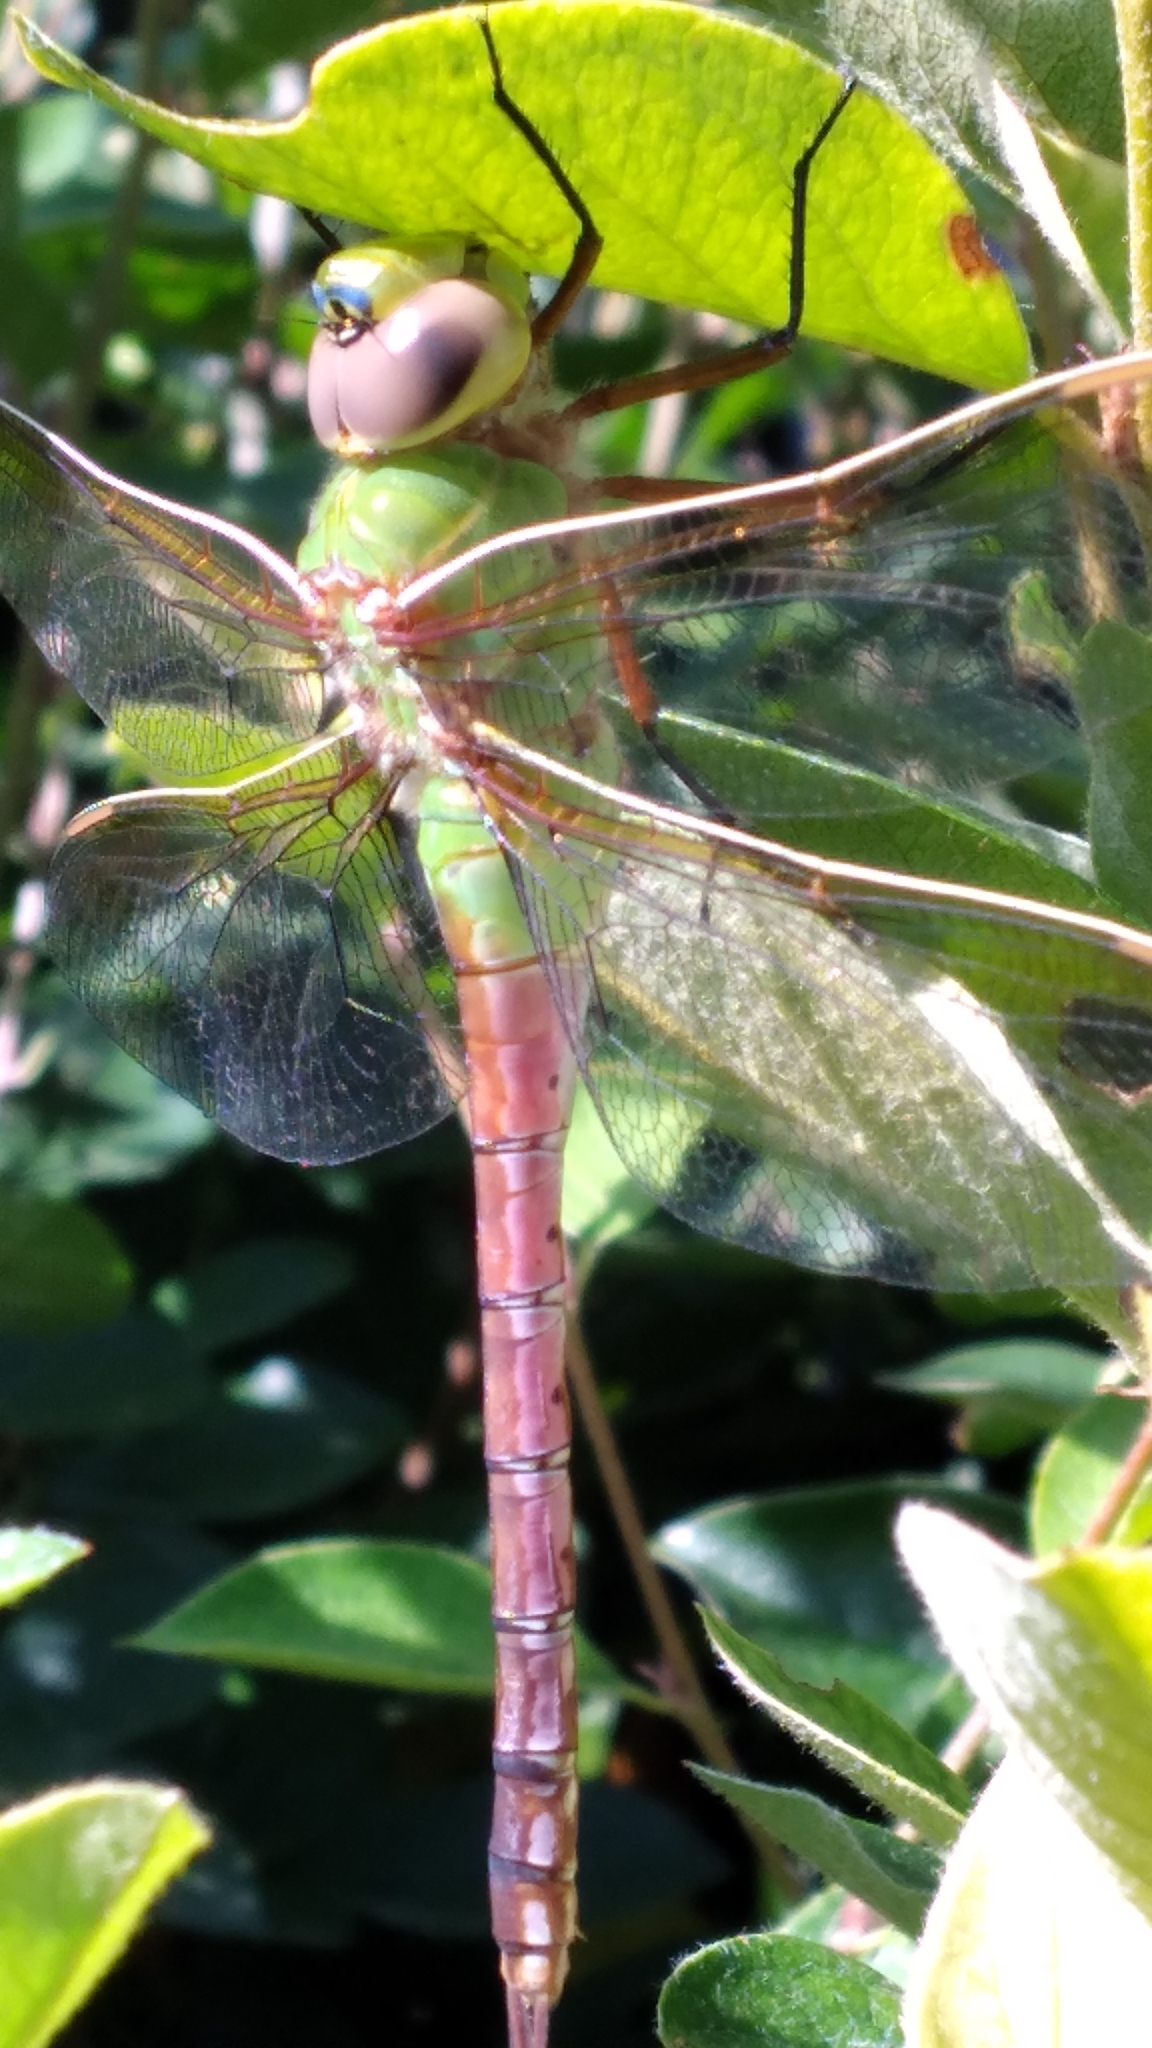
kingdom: Animalia
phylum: Arthropoda
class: Insecta
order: Odonata
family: Aeshnidae
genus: Anax
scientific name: Anax junius
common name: Common green darner
